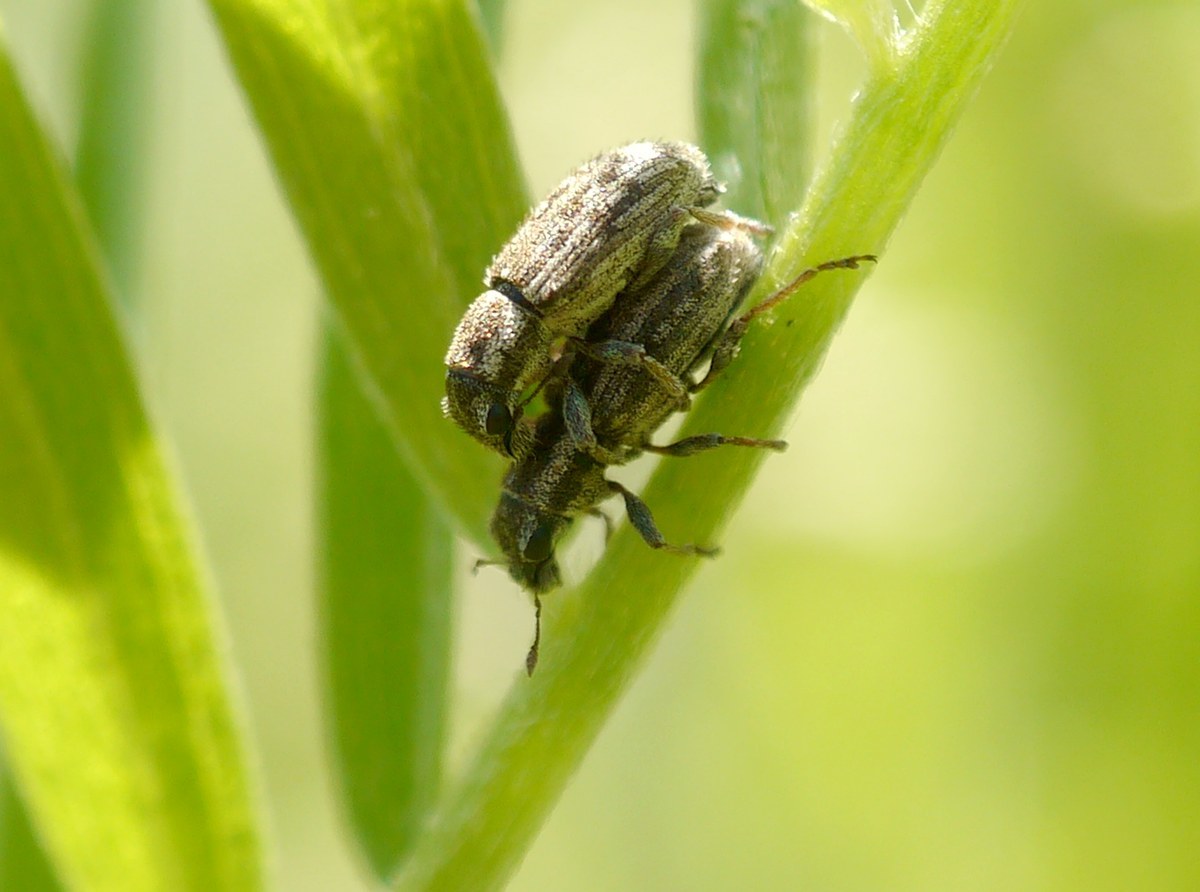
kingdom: Animalia
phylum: Arthropoda
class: Insecta
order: Coleoptera
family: Curculionidae
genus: Sitona
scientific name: Sitona macularius
